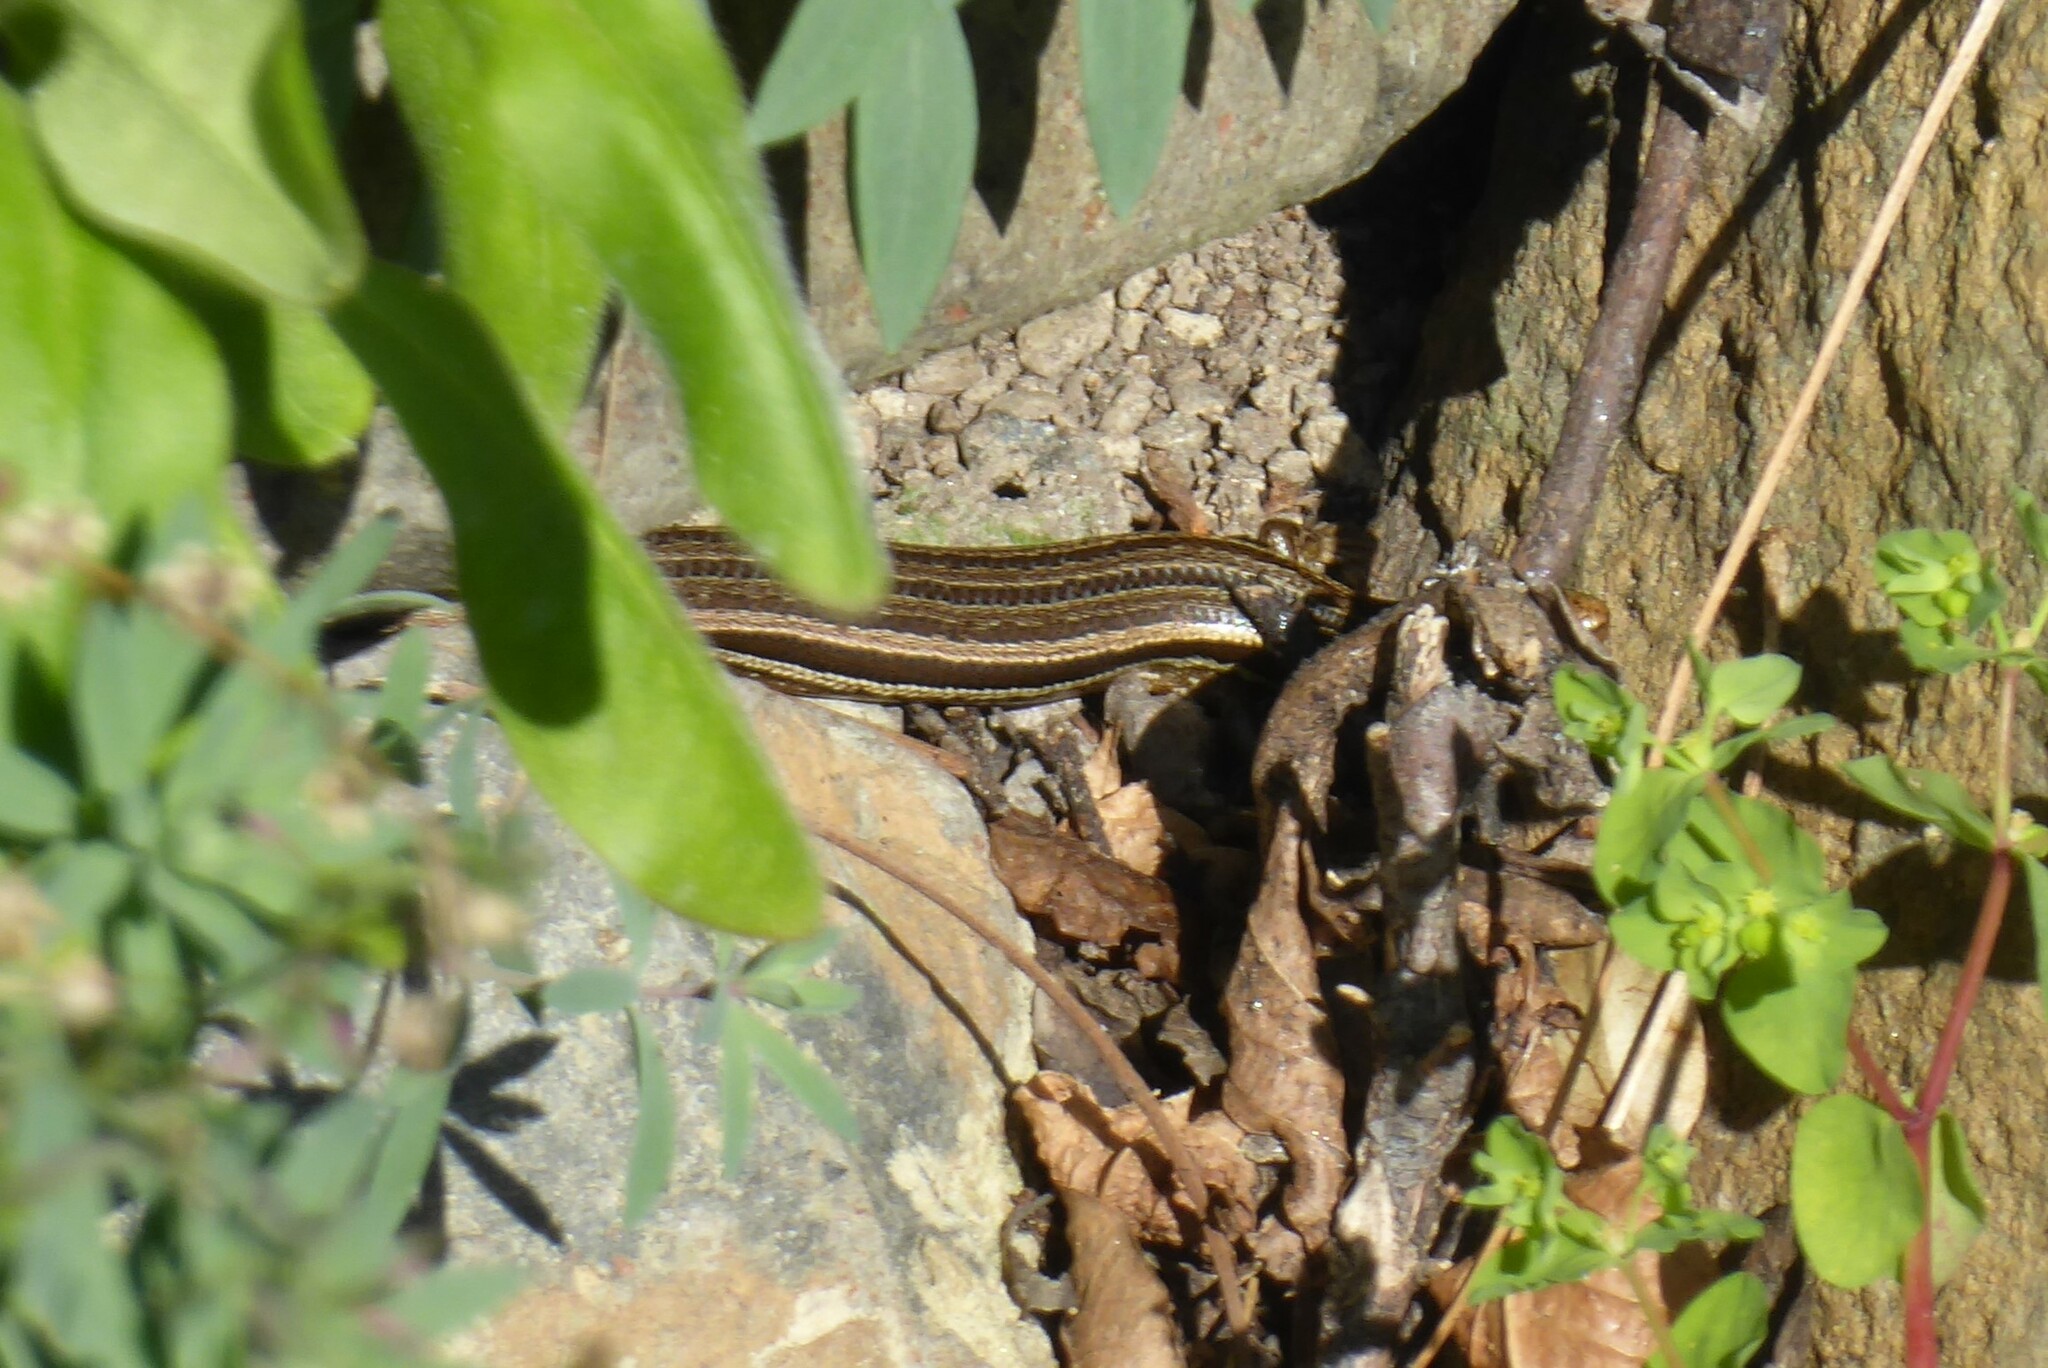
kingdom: Animalia
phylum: Chordata
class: Squamata
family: Scincidae
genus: Oligosoma
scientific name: Oligosoma polychroma
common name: Common new zealand skink
